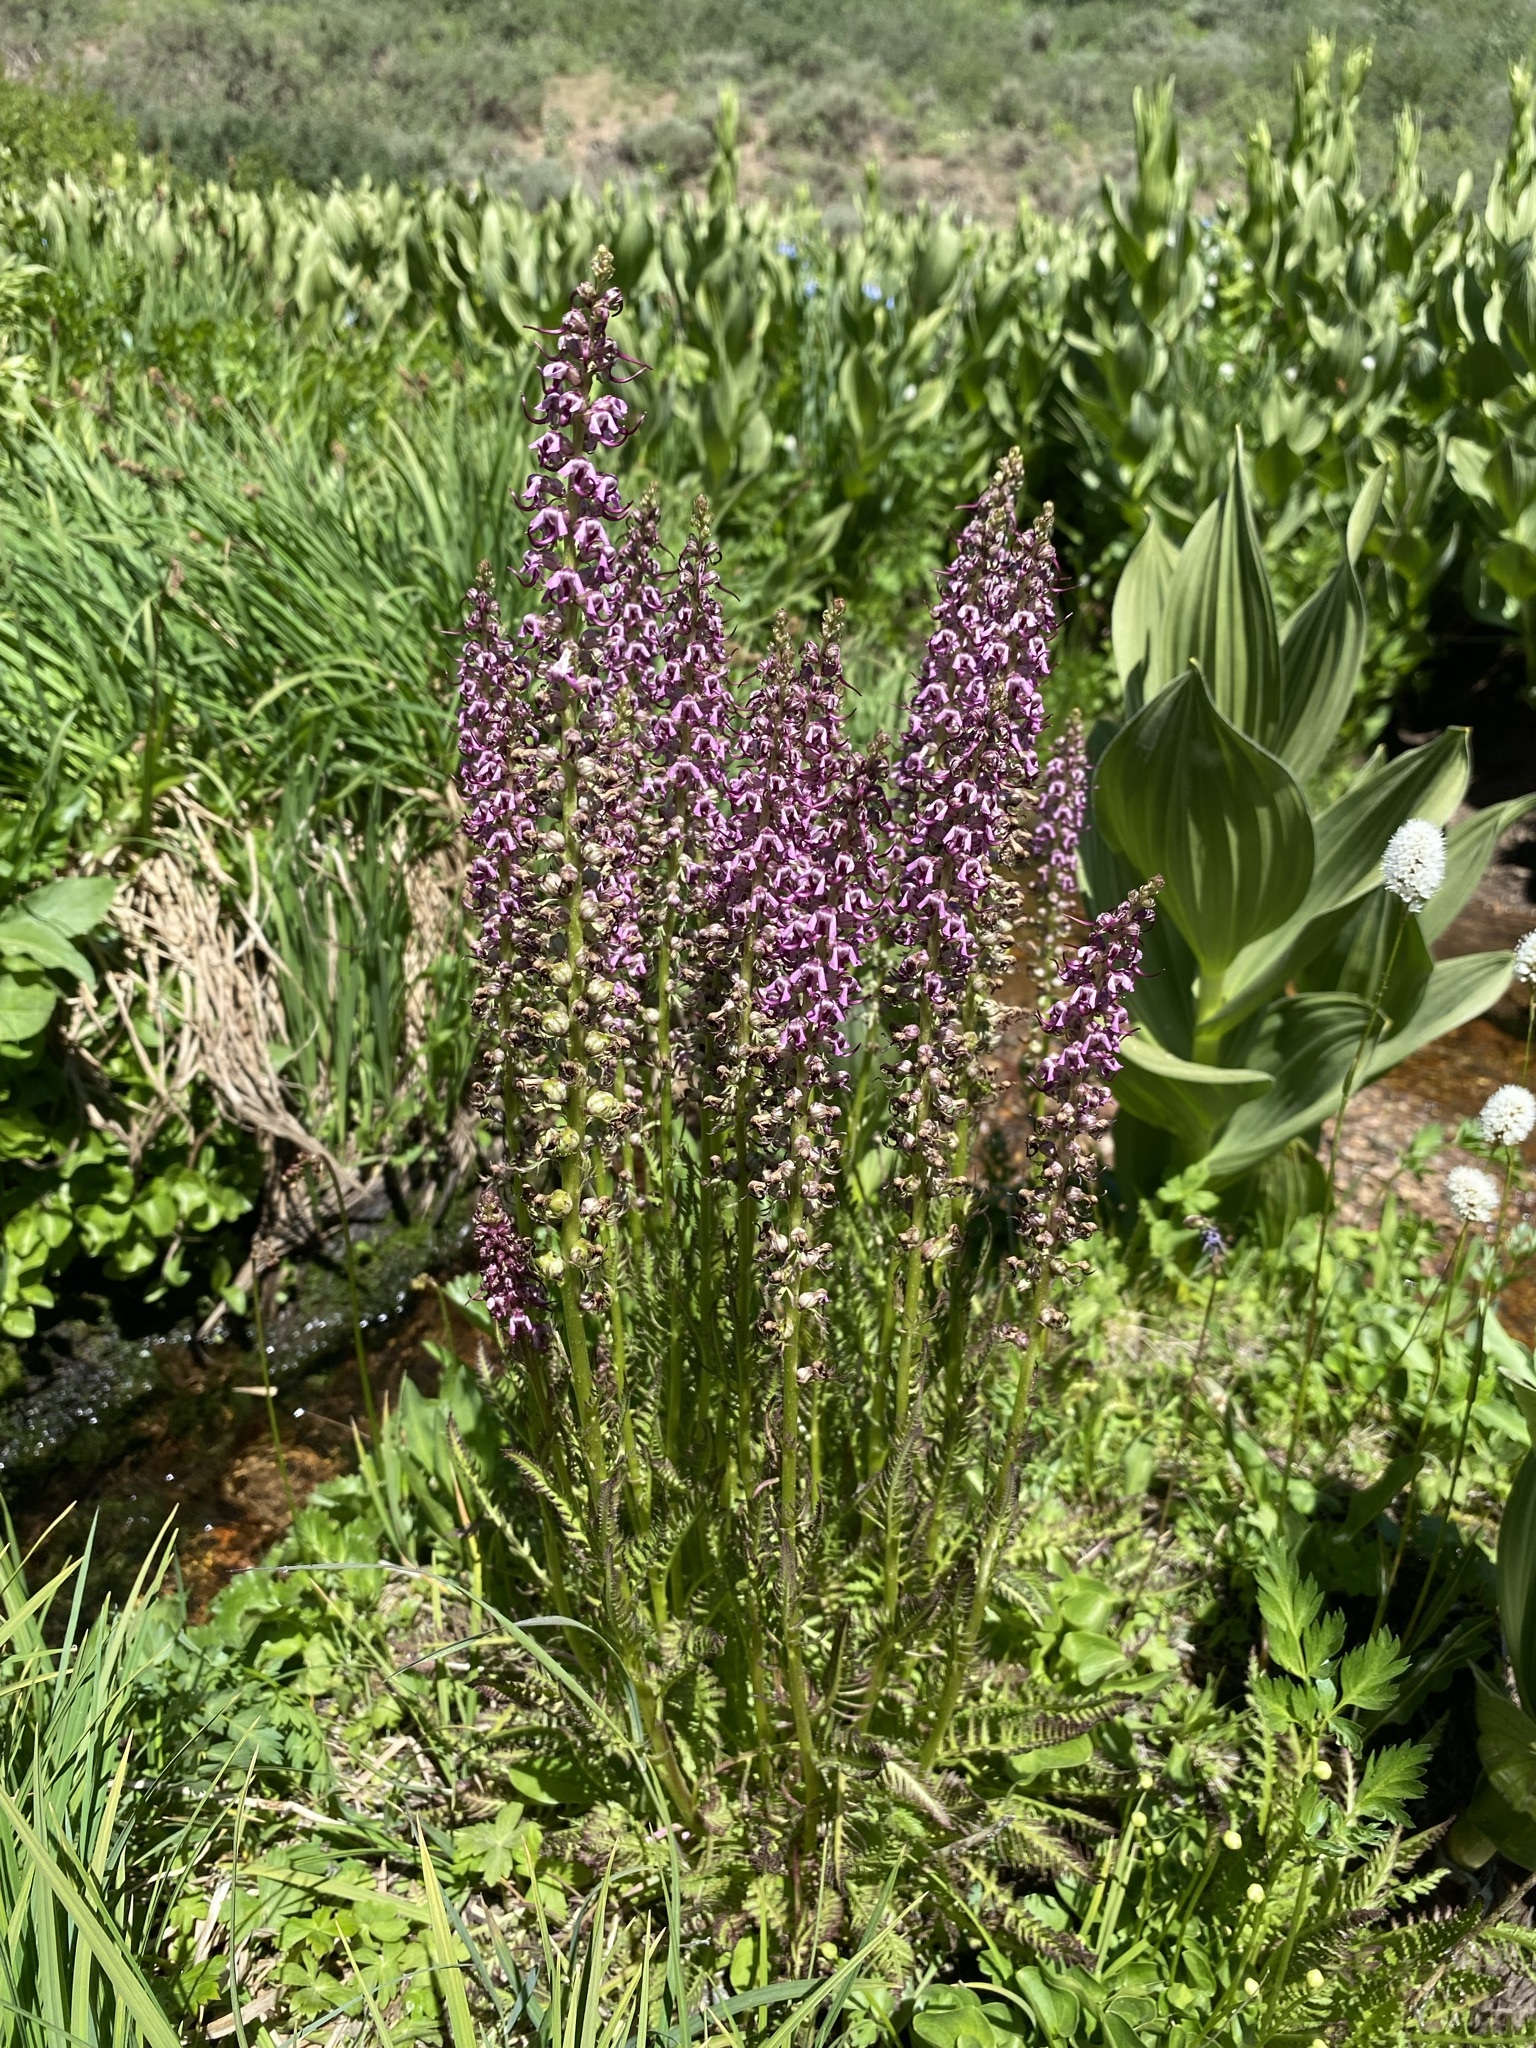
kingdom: Plantae
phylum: Tracheophyta
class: Magnoliopsida
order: Lamiales
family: Orobanchaceae
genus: Pedicularis
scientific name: Pedicularis groenlandica
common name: Elephant's-head
